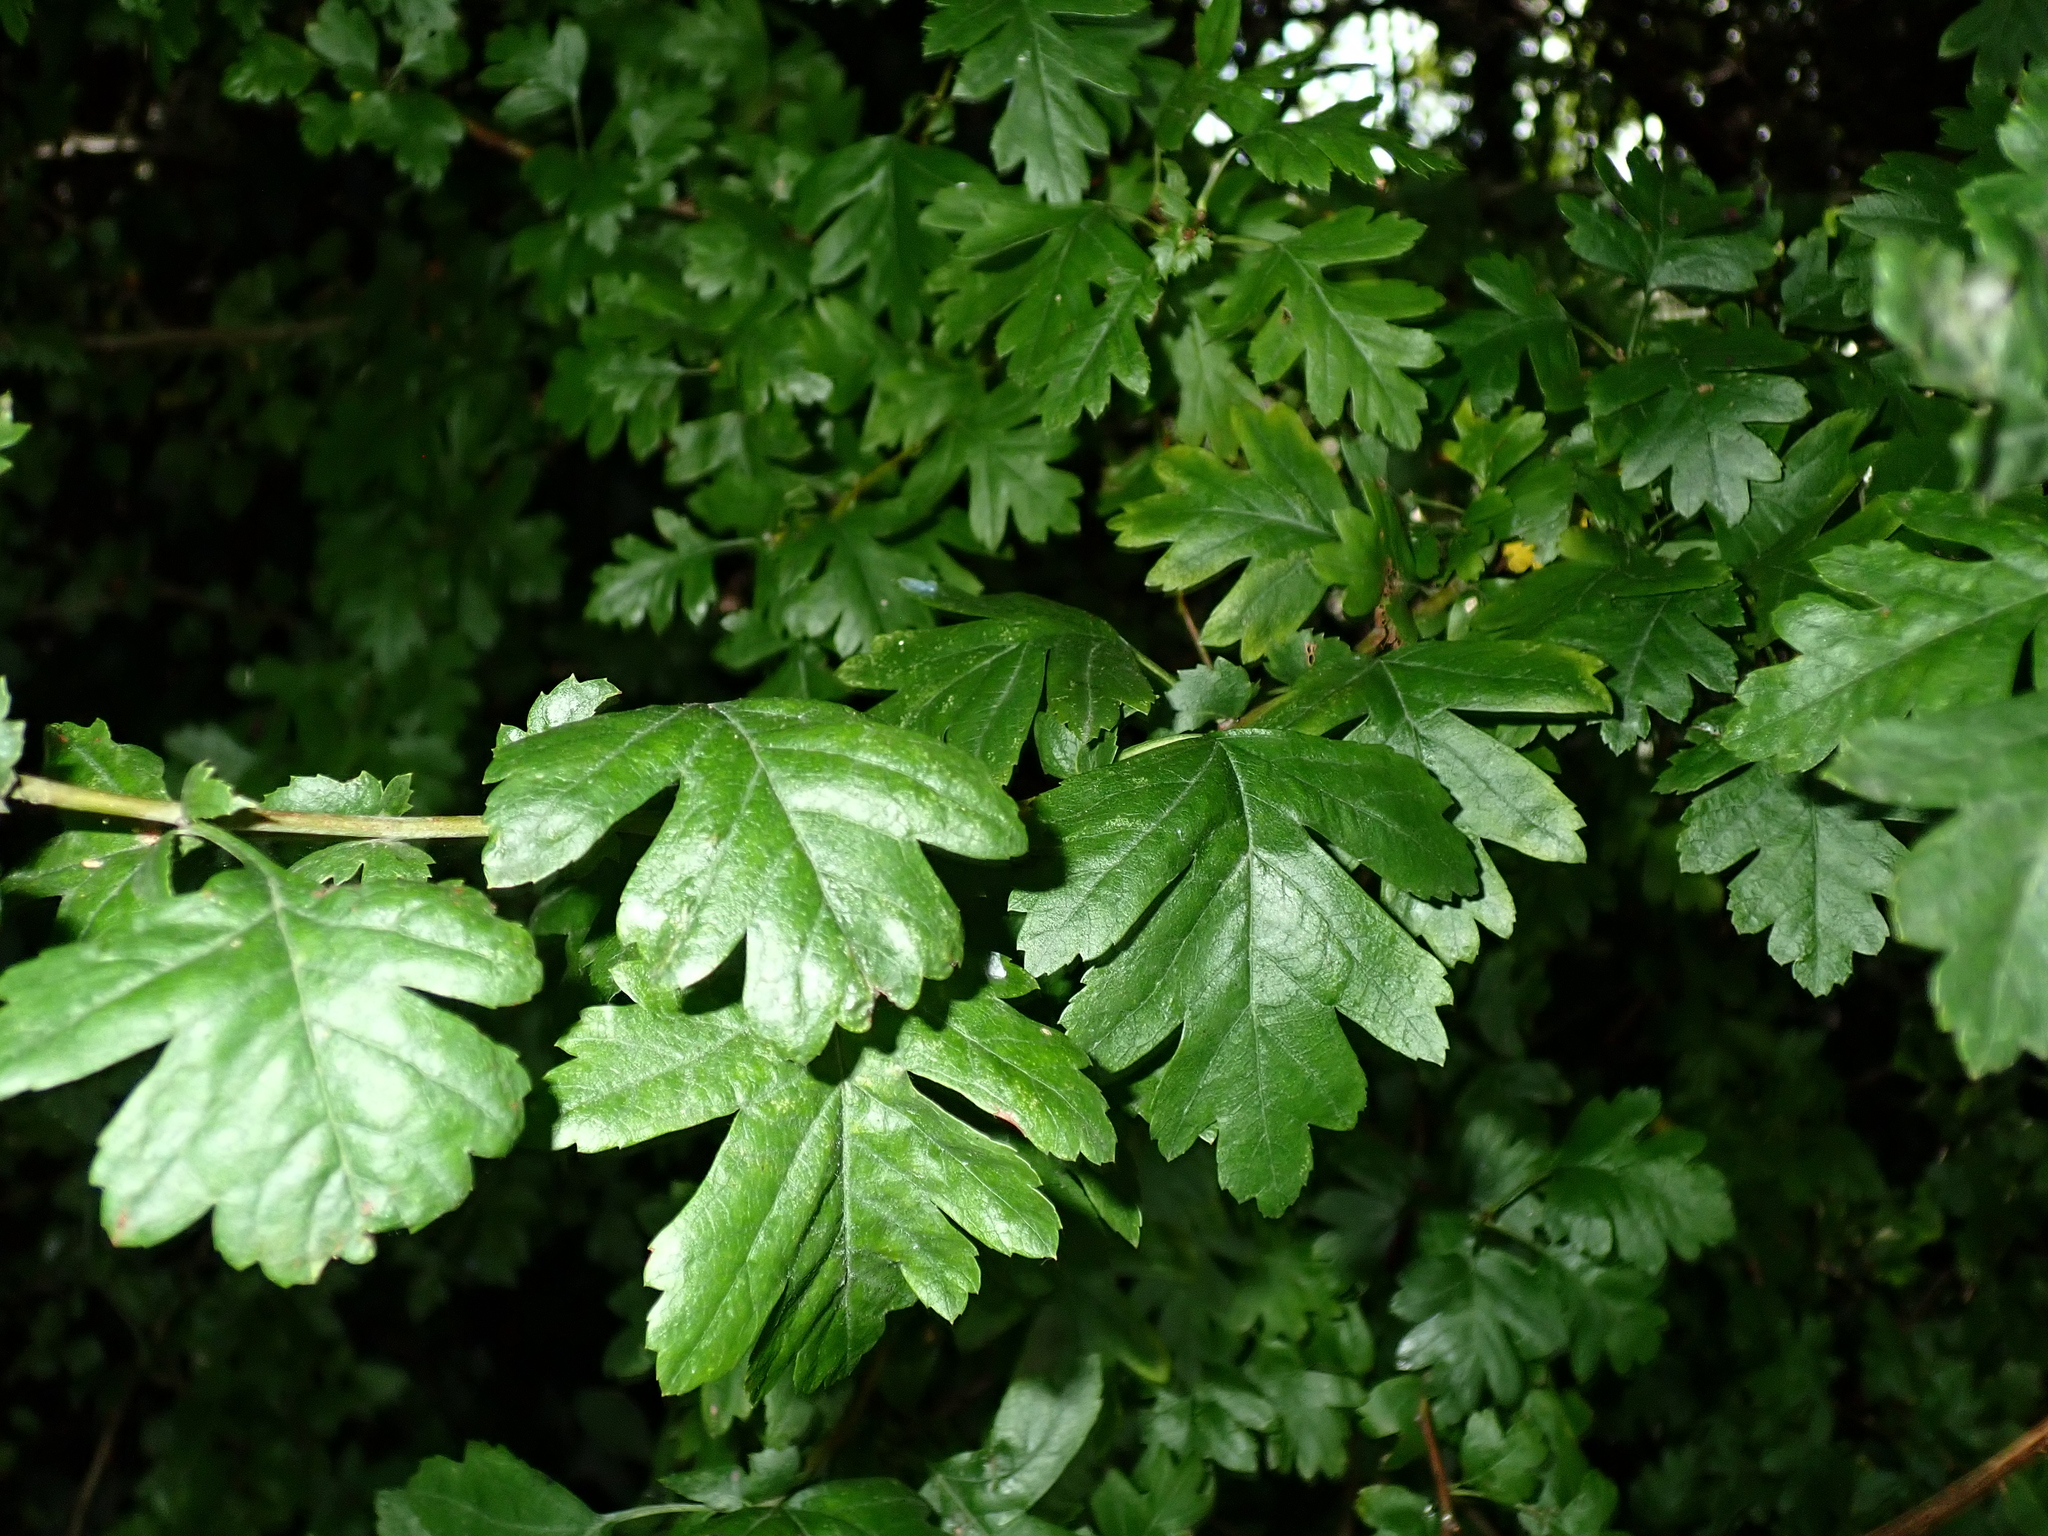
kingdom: Plantae
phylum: Tracheophyta
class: Magnoliopsida
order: Rosales
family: Rosaceae
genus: Crataegus
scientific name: Crataegus monogyna
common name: Hawthorn
